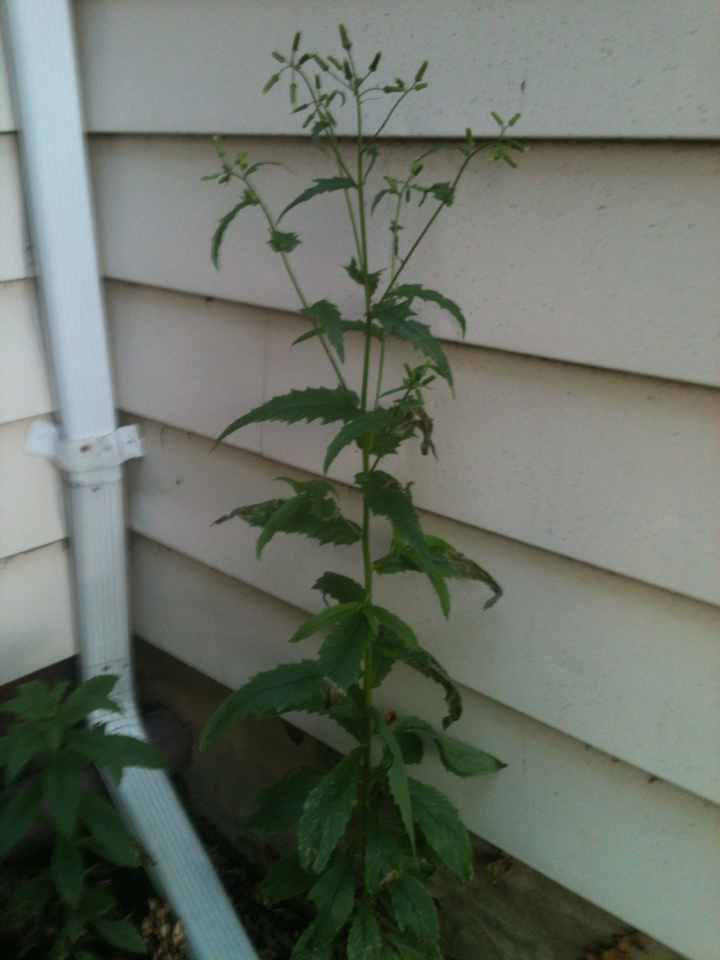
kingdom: Plantae
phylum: Tracheophyta
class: Magnoliopsida
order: Asterales
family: Asteraceae
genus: Erechtites
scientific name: Erechtites hieraciifolius
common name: American burnweed
